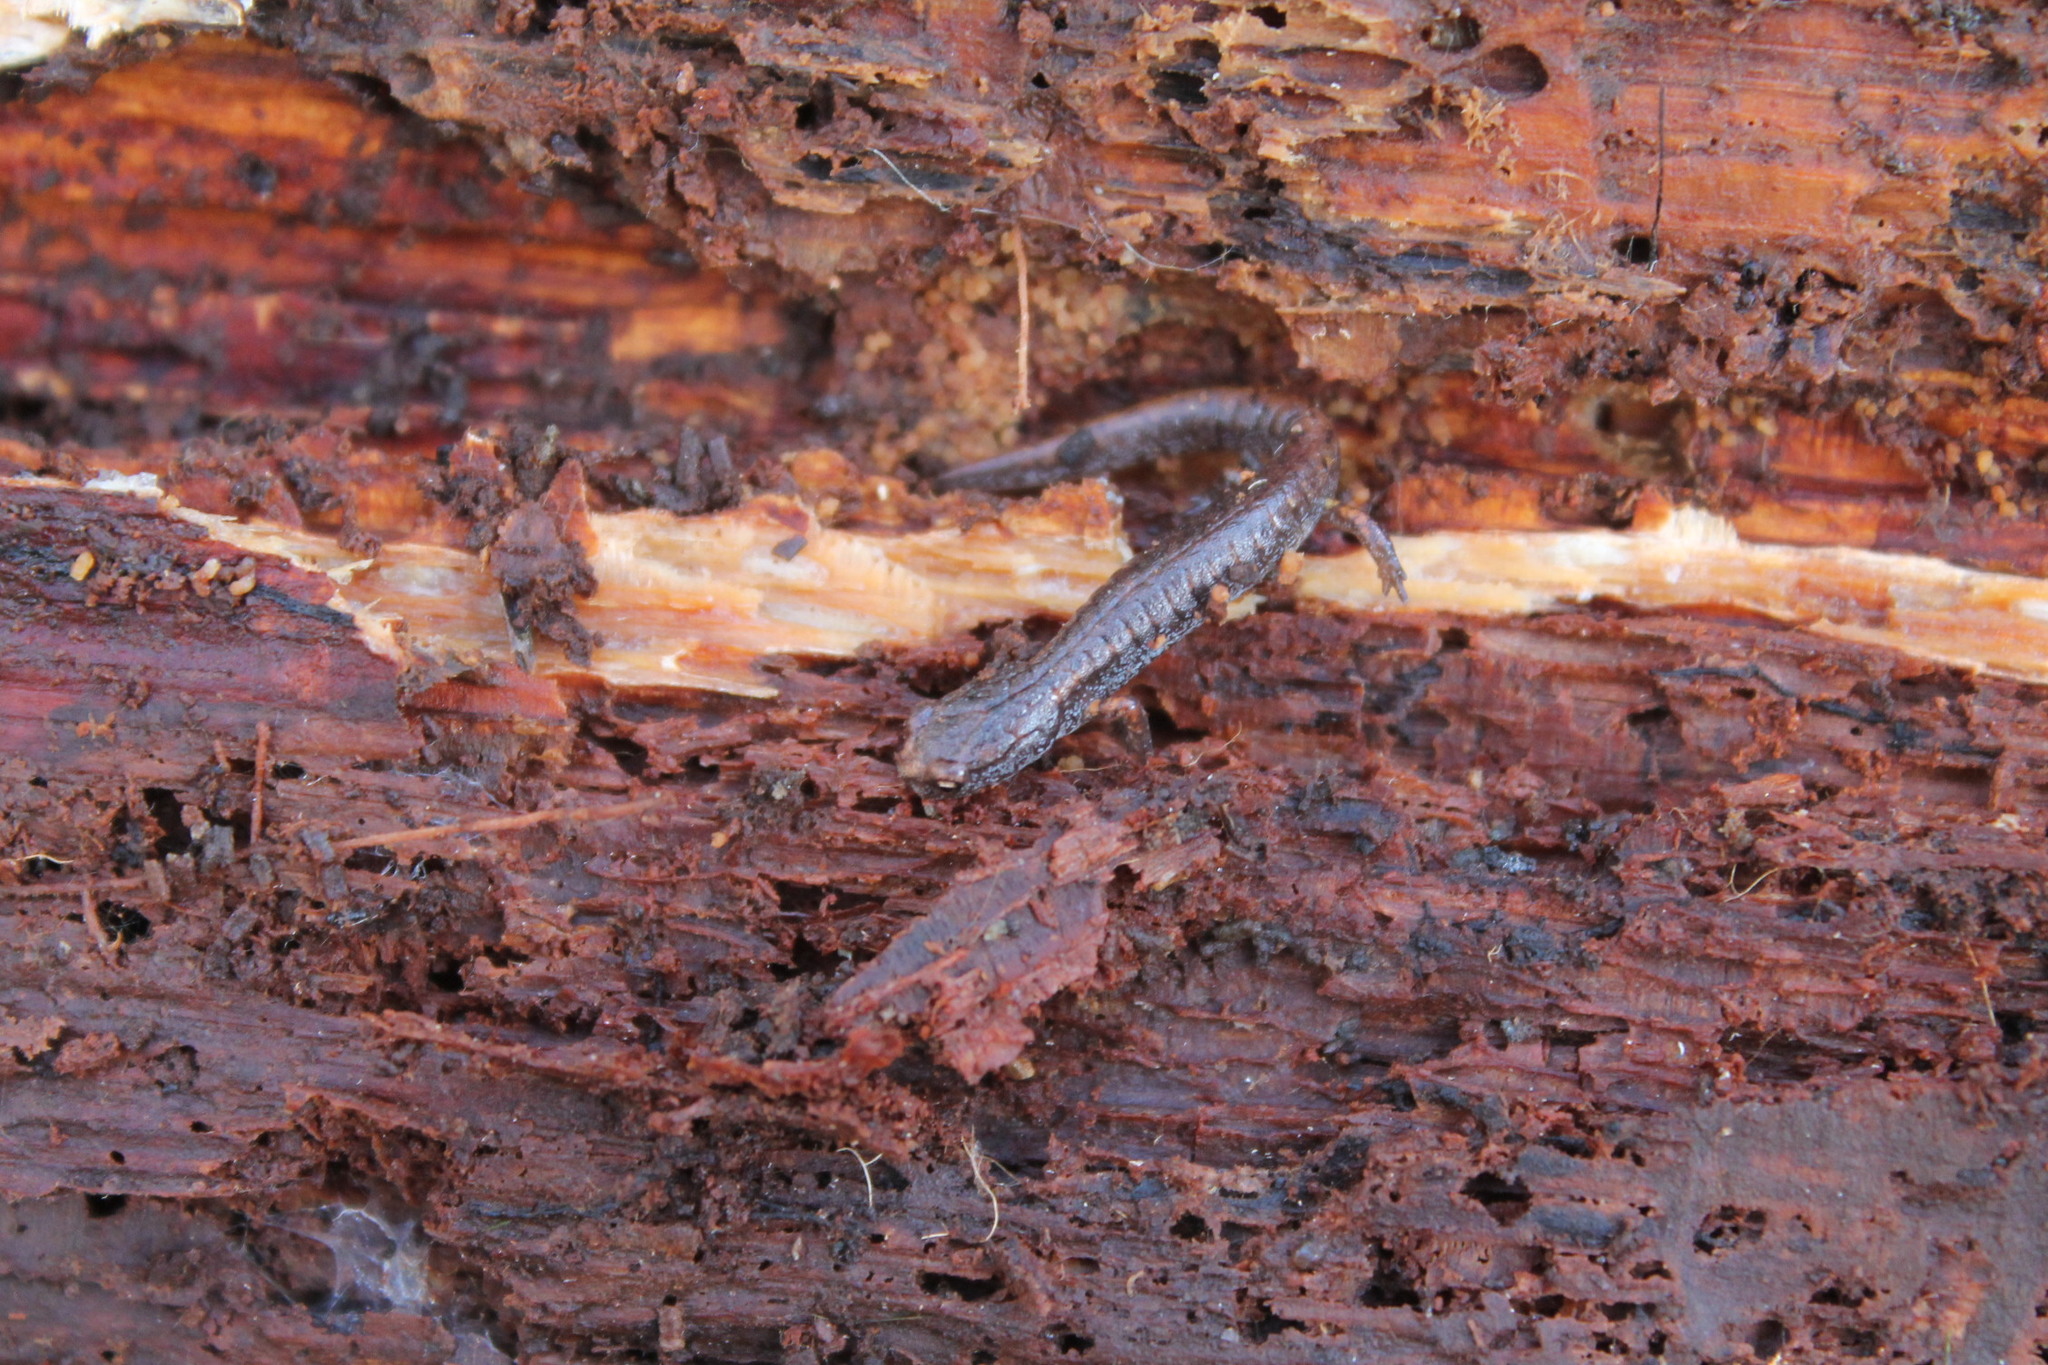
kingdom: Animalia
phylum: Chordata
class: Amphibia
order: Caudata
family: Plethodontidae
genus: Hemidactylium
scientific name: Hemidactylium scutatum
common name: Four-toed salamander
